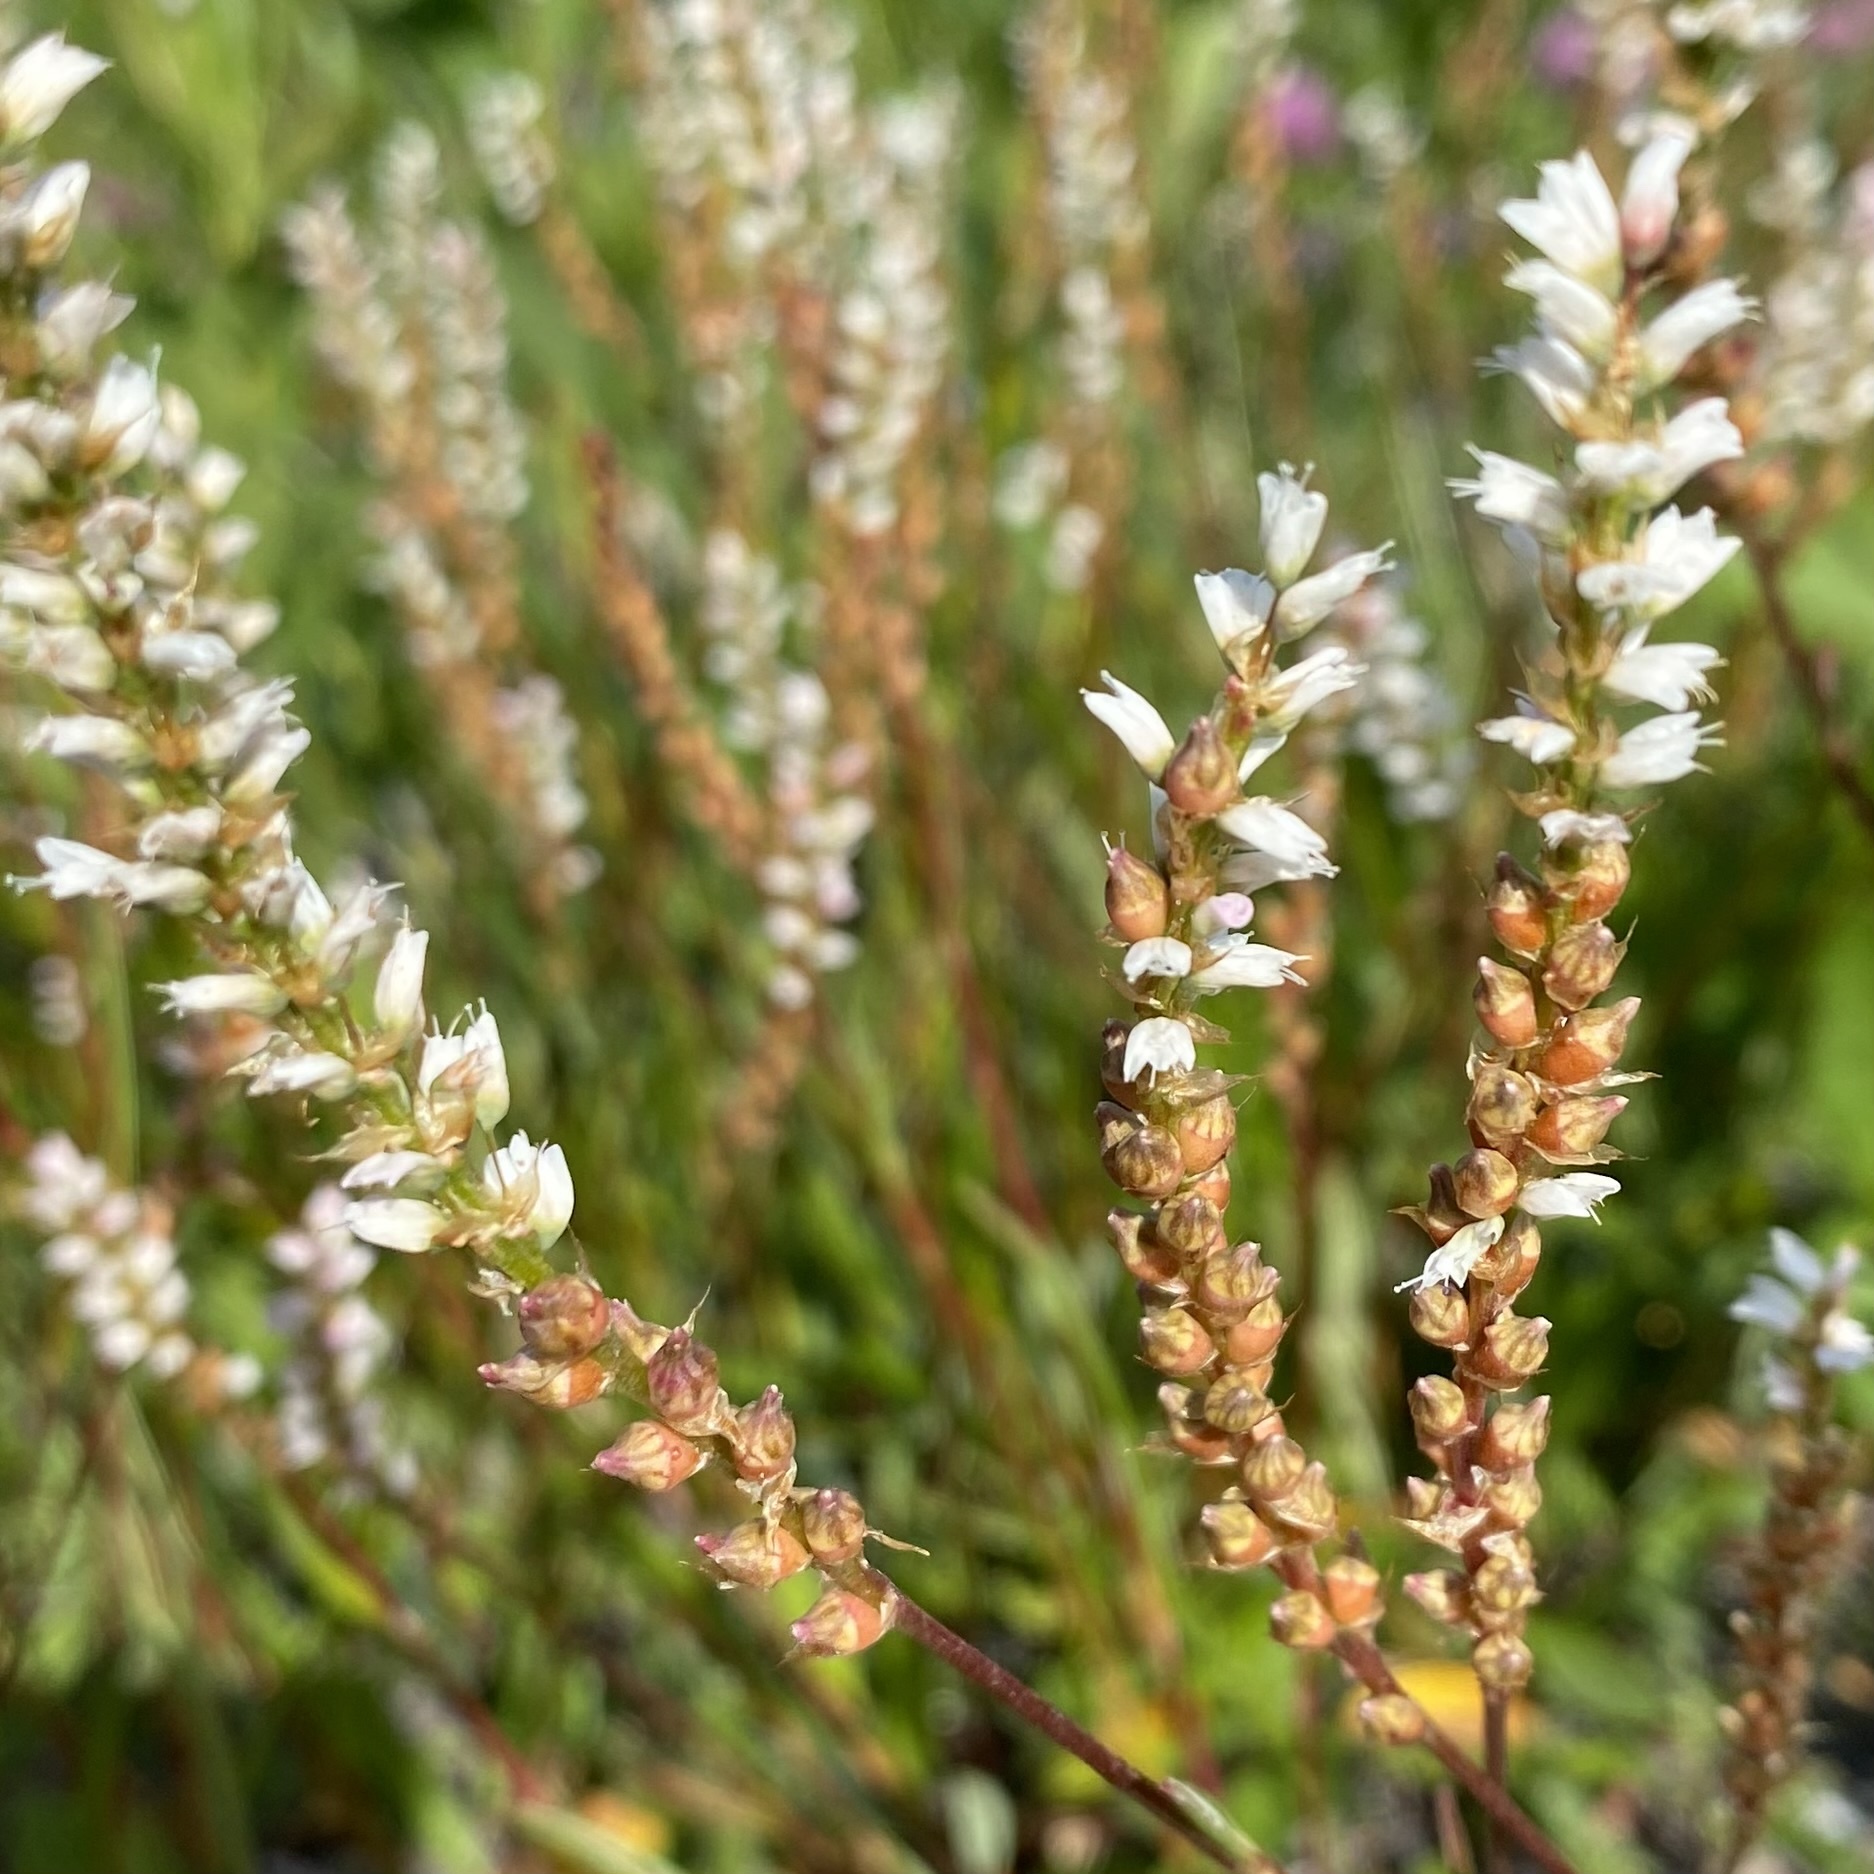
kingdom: Plantae
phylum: Tracheophyta
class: Magnoliopsida
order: Caryophyllales
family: Polygonaceae
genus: Bistorta
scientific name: Bistorta vivipara
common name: Alpine bistort
